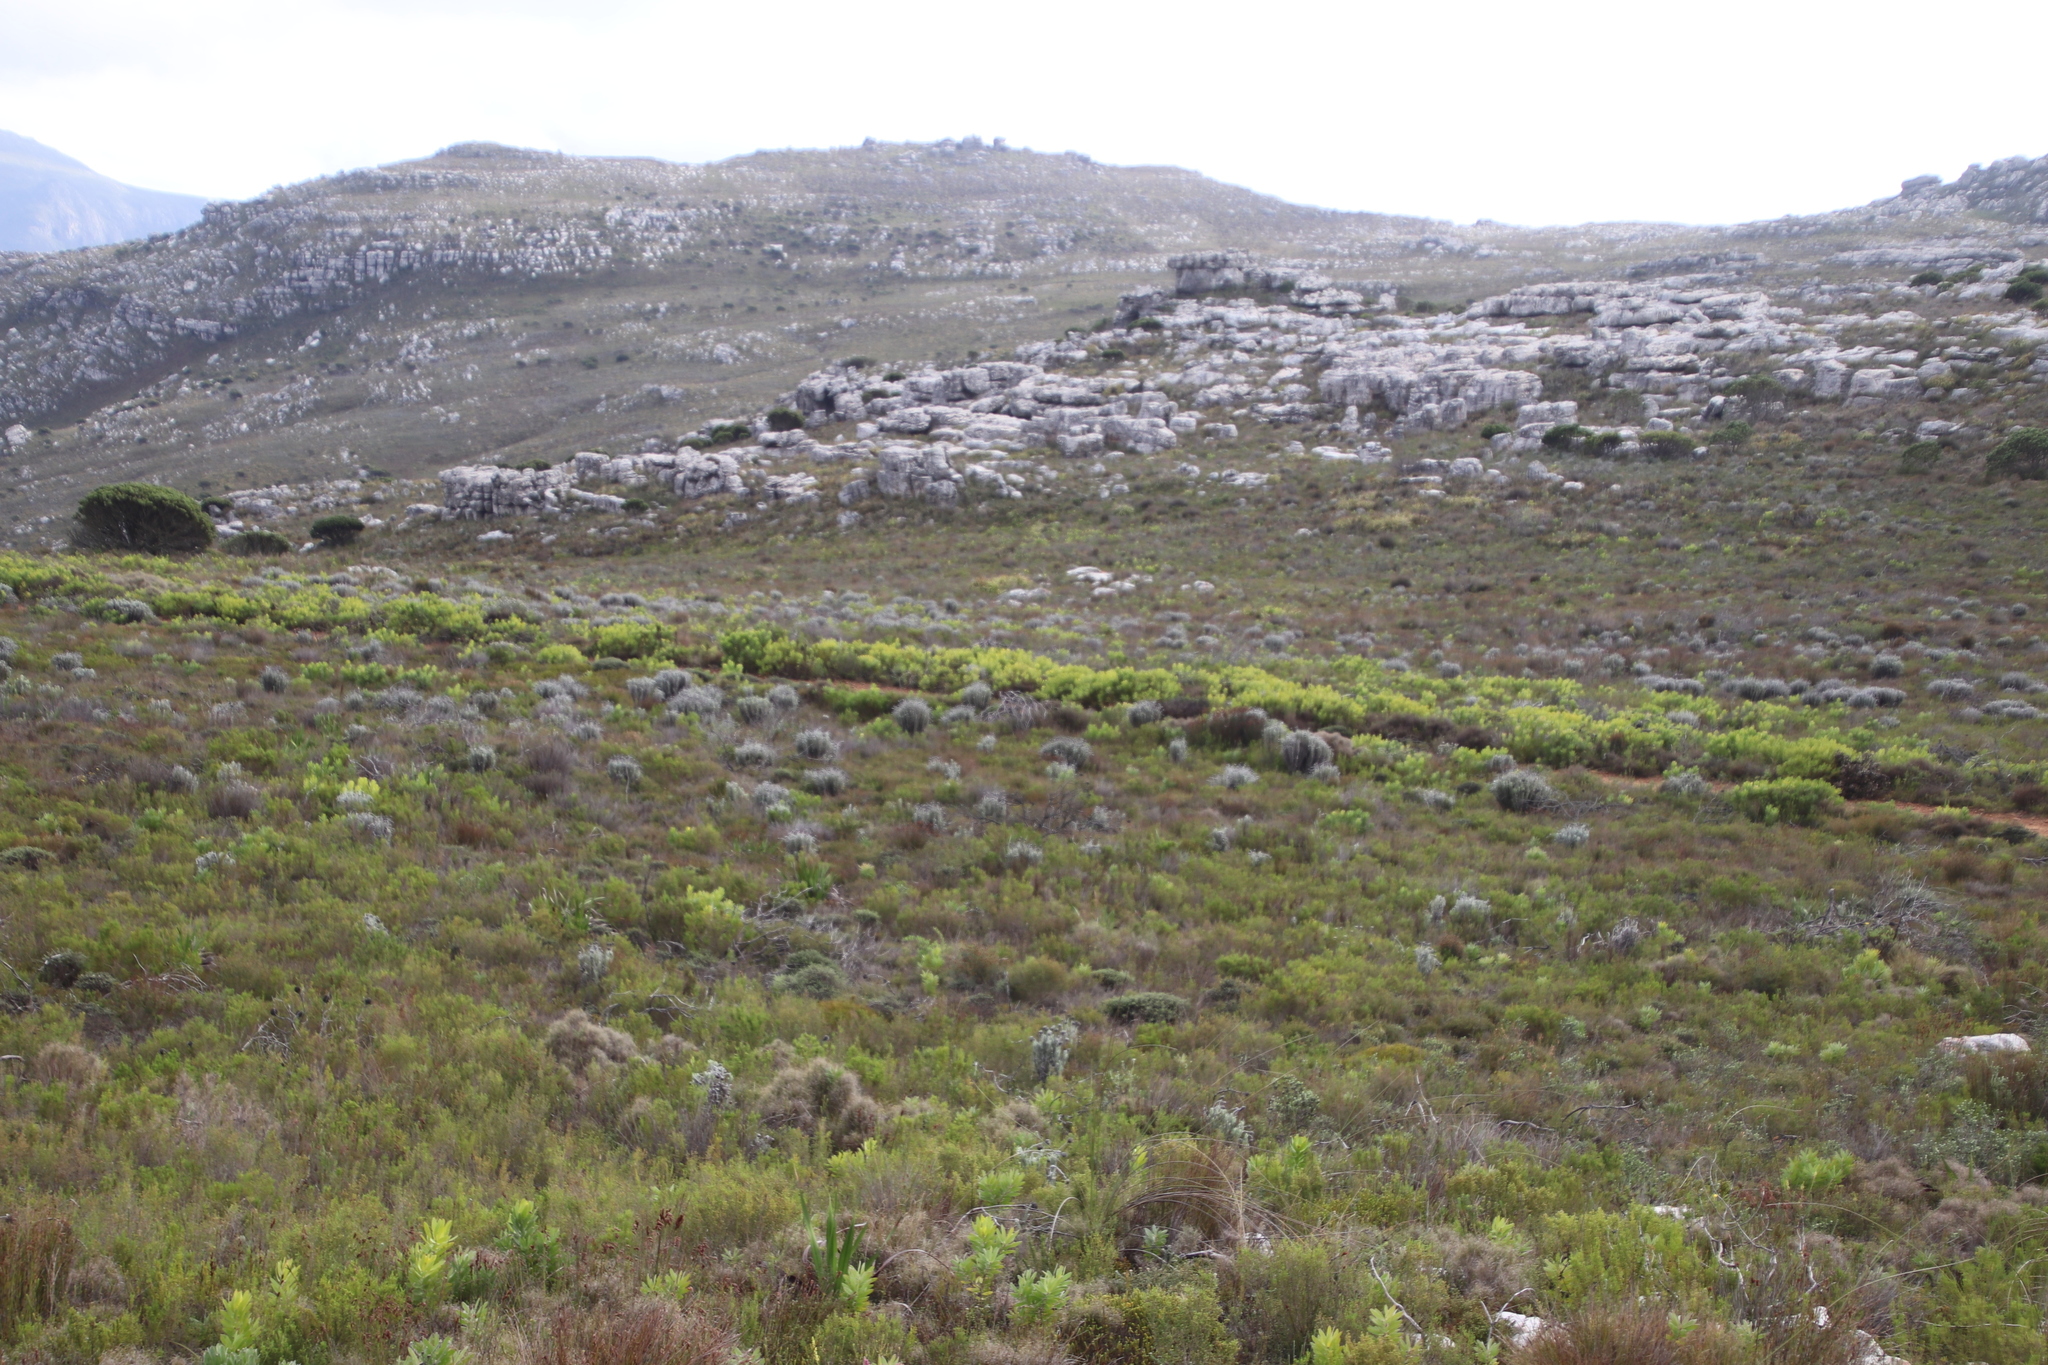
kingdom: Plantae
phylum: Tracheophyta
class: Magnoliopsida
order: Proteales
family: Proteaceae
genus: Leucadendron
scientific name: Leucadendron laureolum
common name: Golden sunshinebush
